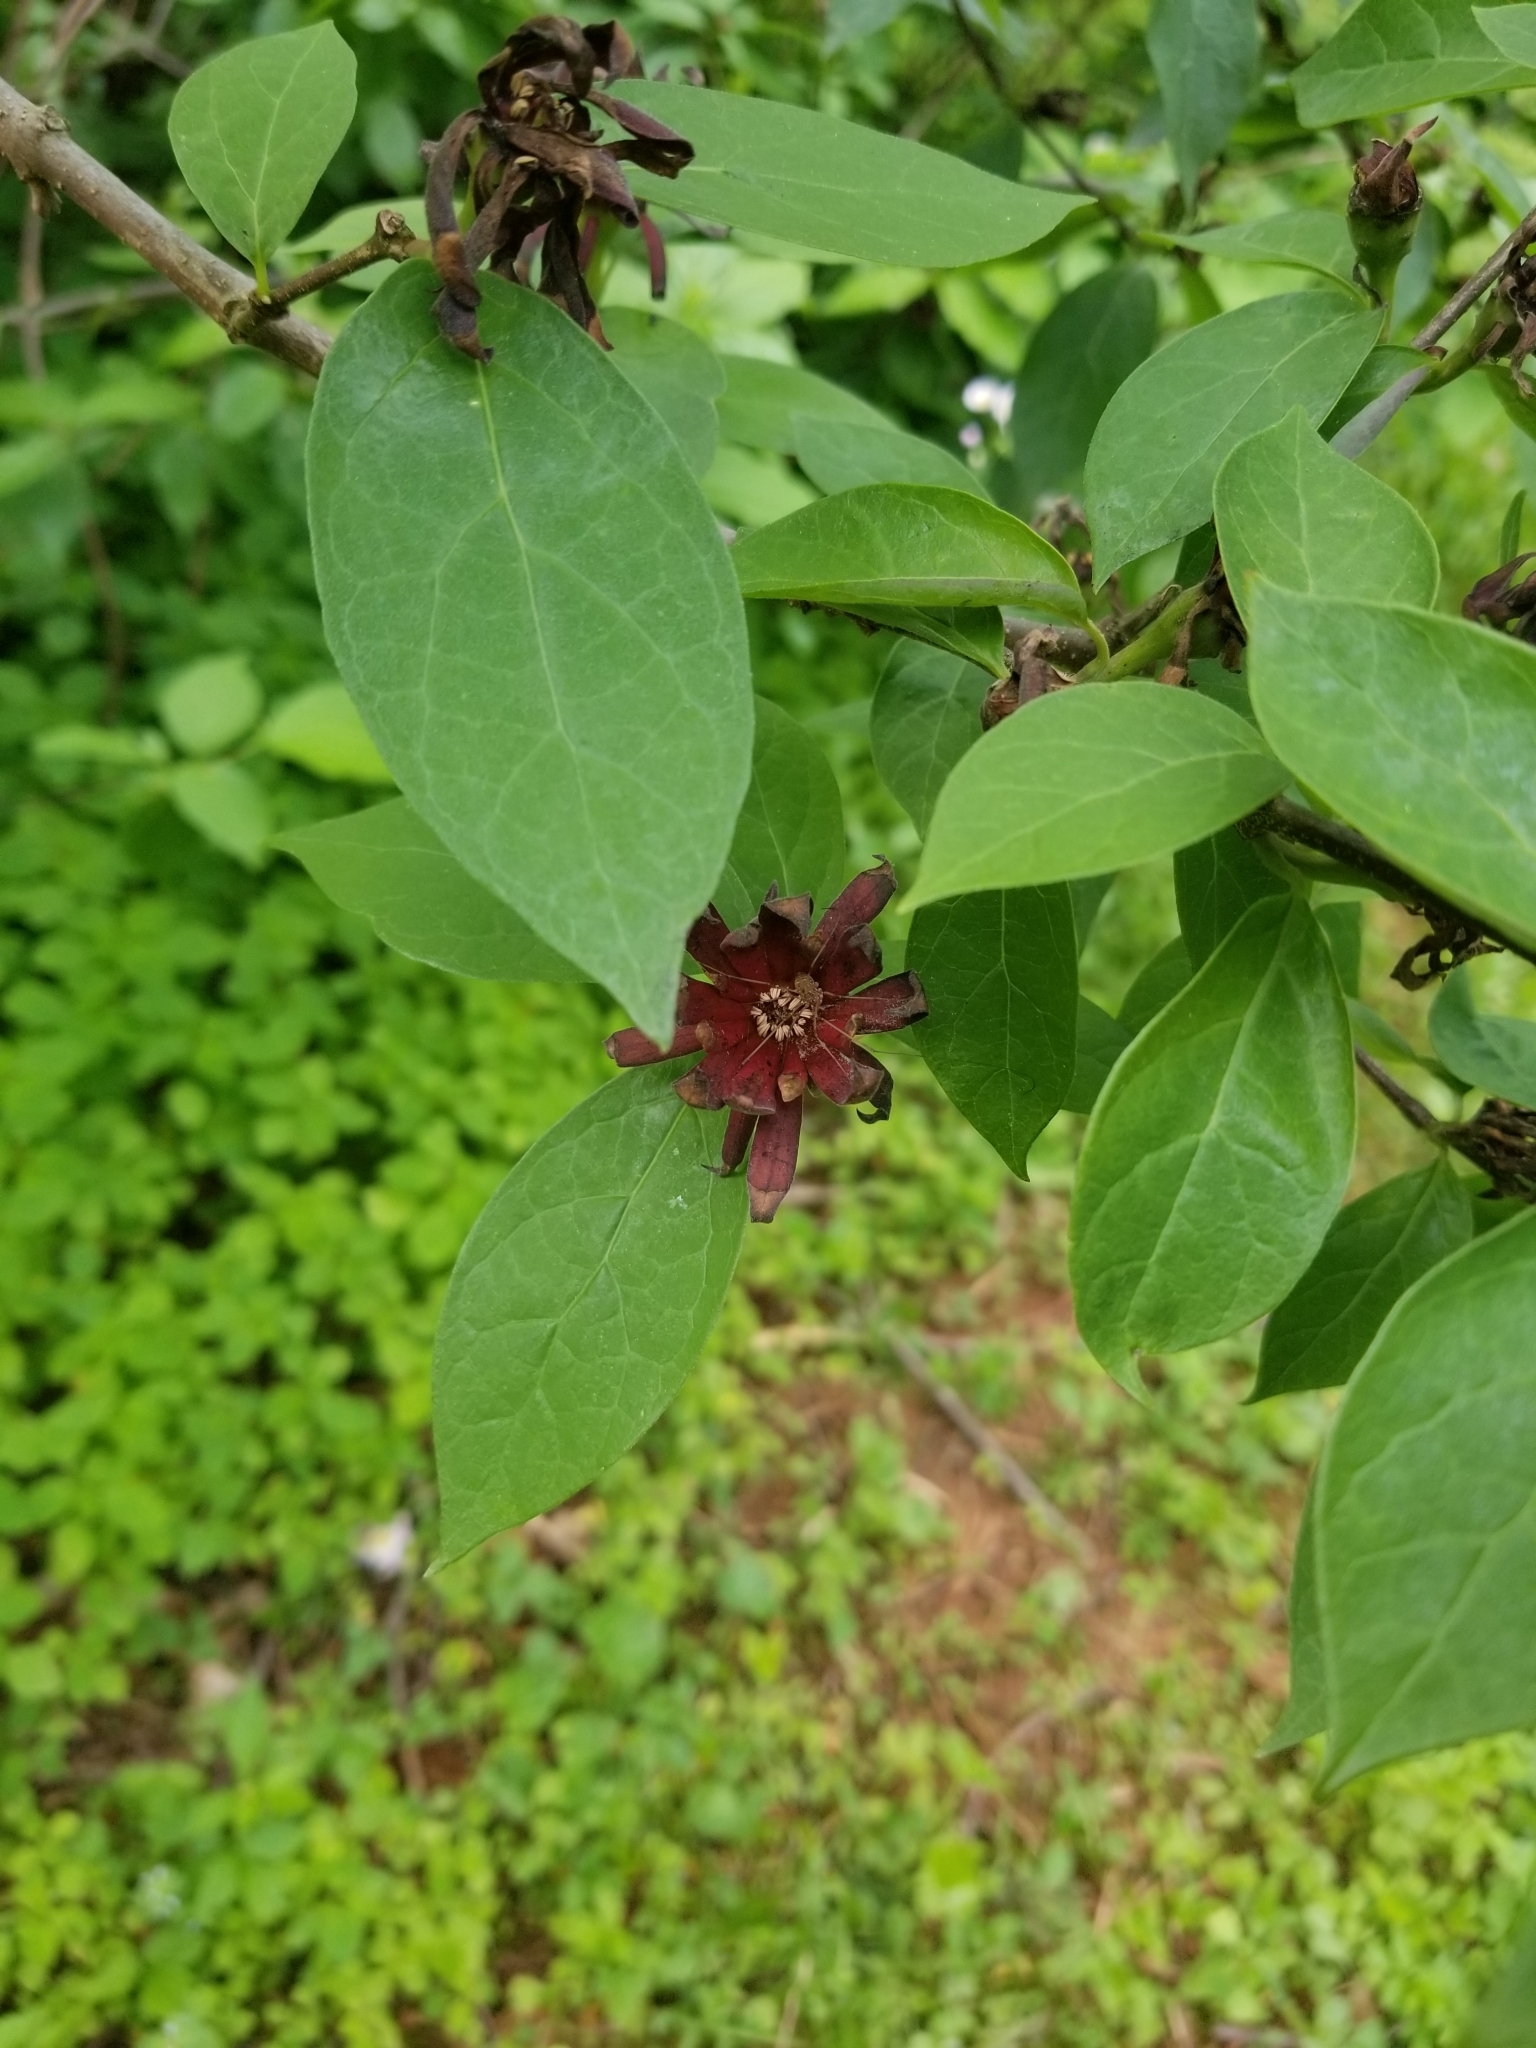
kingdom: Plantae
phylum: Tracheophyta
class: Magnoliopsida
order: Laurales
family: Calycanthaceae
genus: Calycanthus
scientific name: Calycanthus floridus
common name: Carolina-allspice
